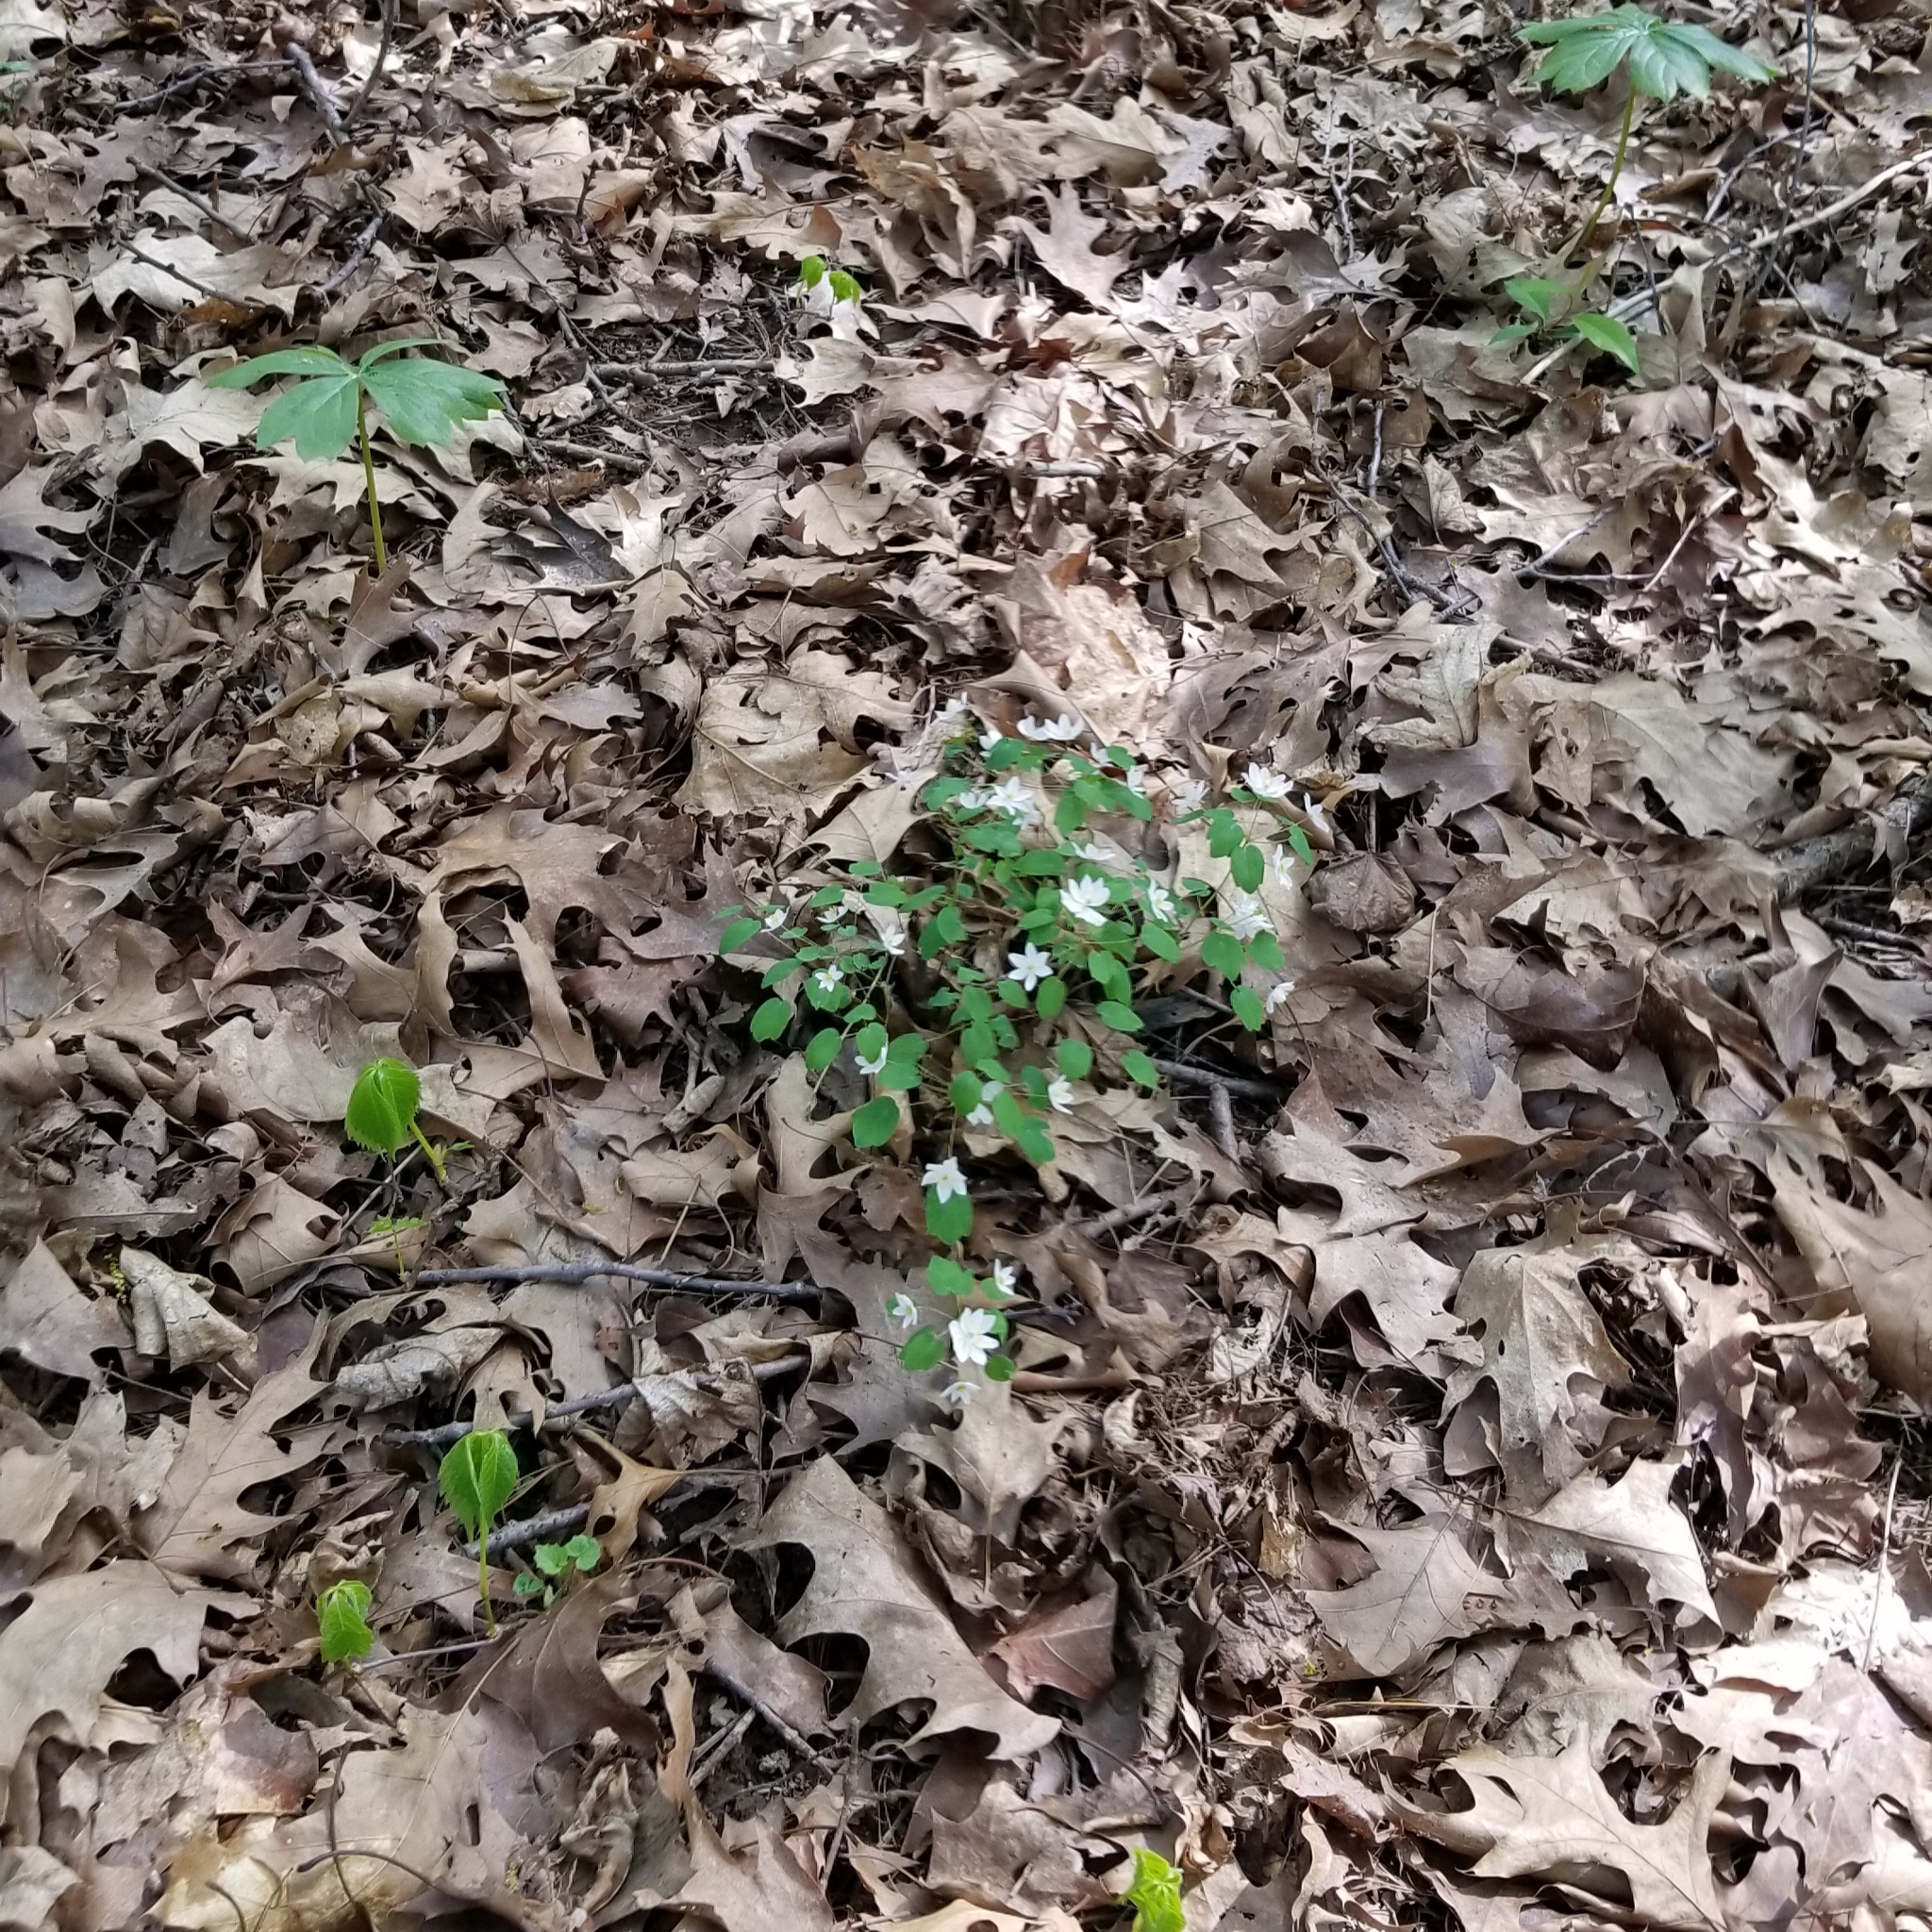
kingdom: Plantae
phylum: Tracheophyta
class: Magnoliopsida
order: Ranunculales
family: Ranunculaceae
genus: Thalictrum
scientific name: Thalictrum thalictroides
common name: Rue-anemone
